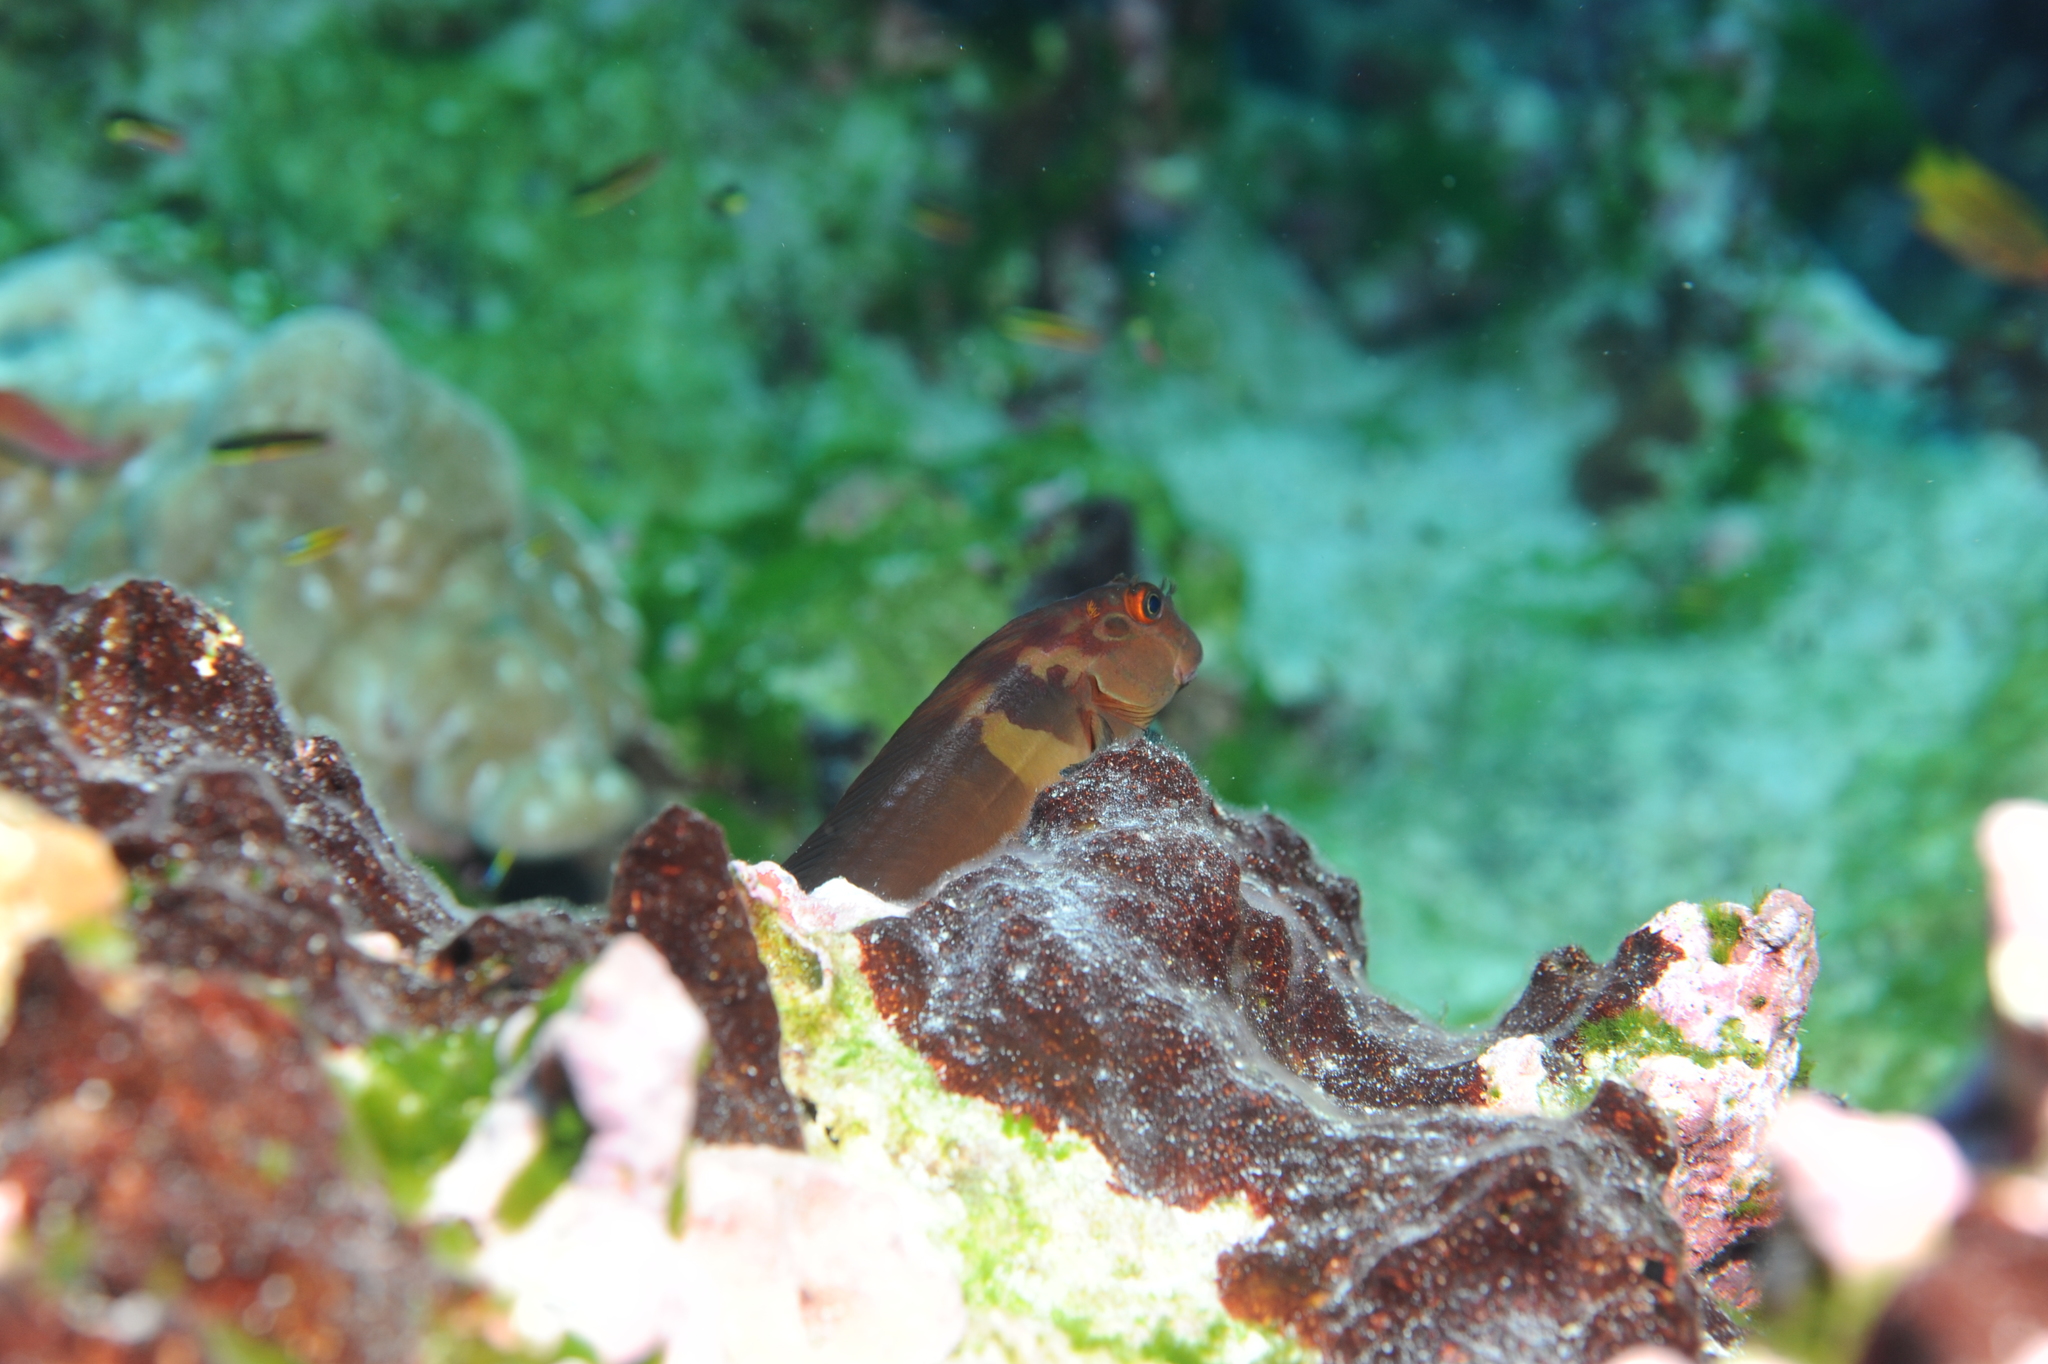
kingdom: Animalia
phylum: Chordata
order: Perciformes
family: Blenniidae
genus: Ophioblennius
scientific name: Ophioblennius steindachneri
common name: Panamic fanged blenny
